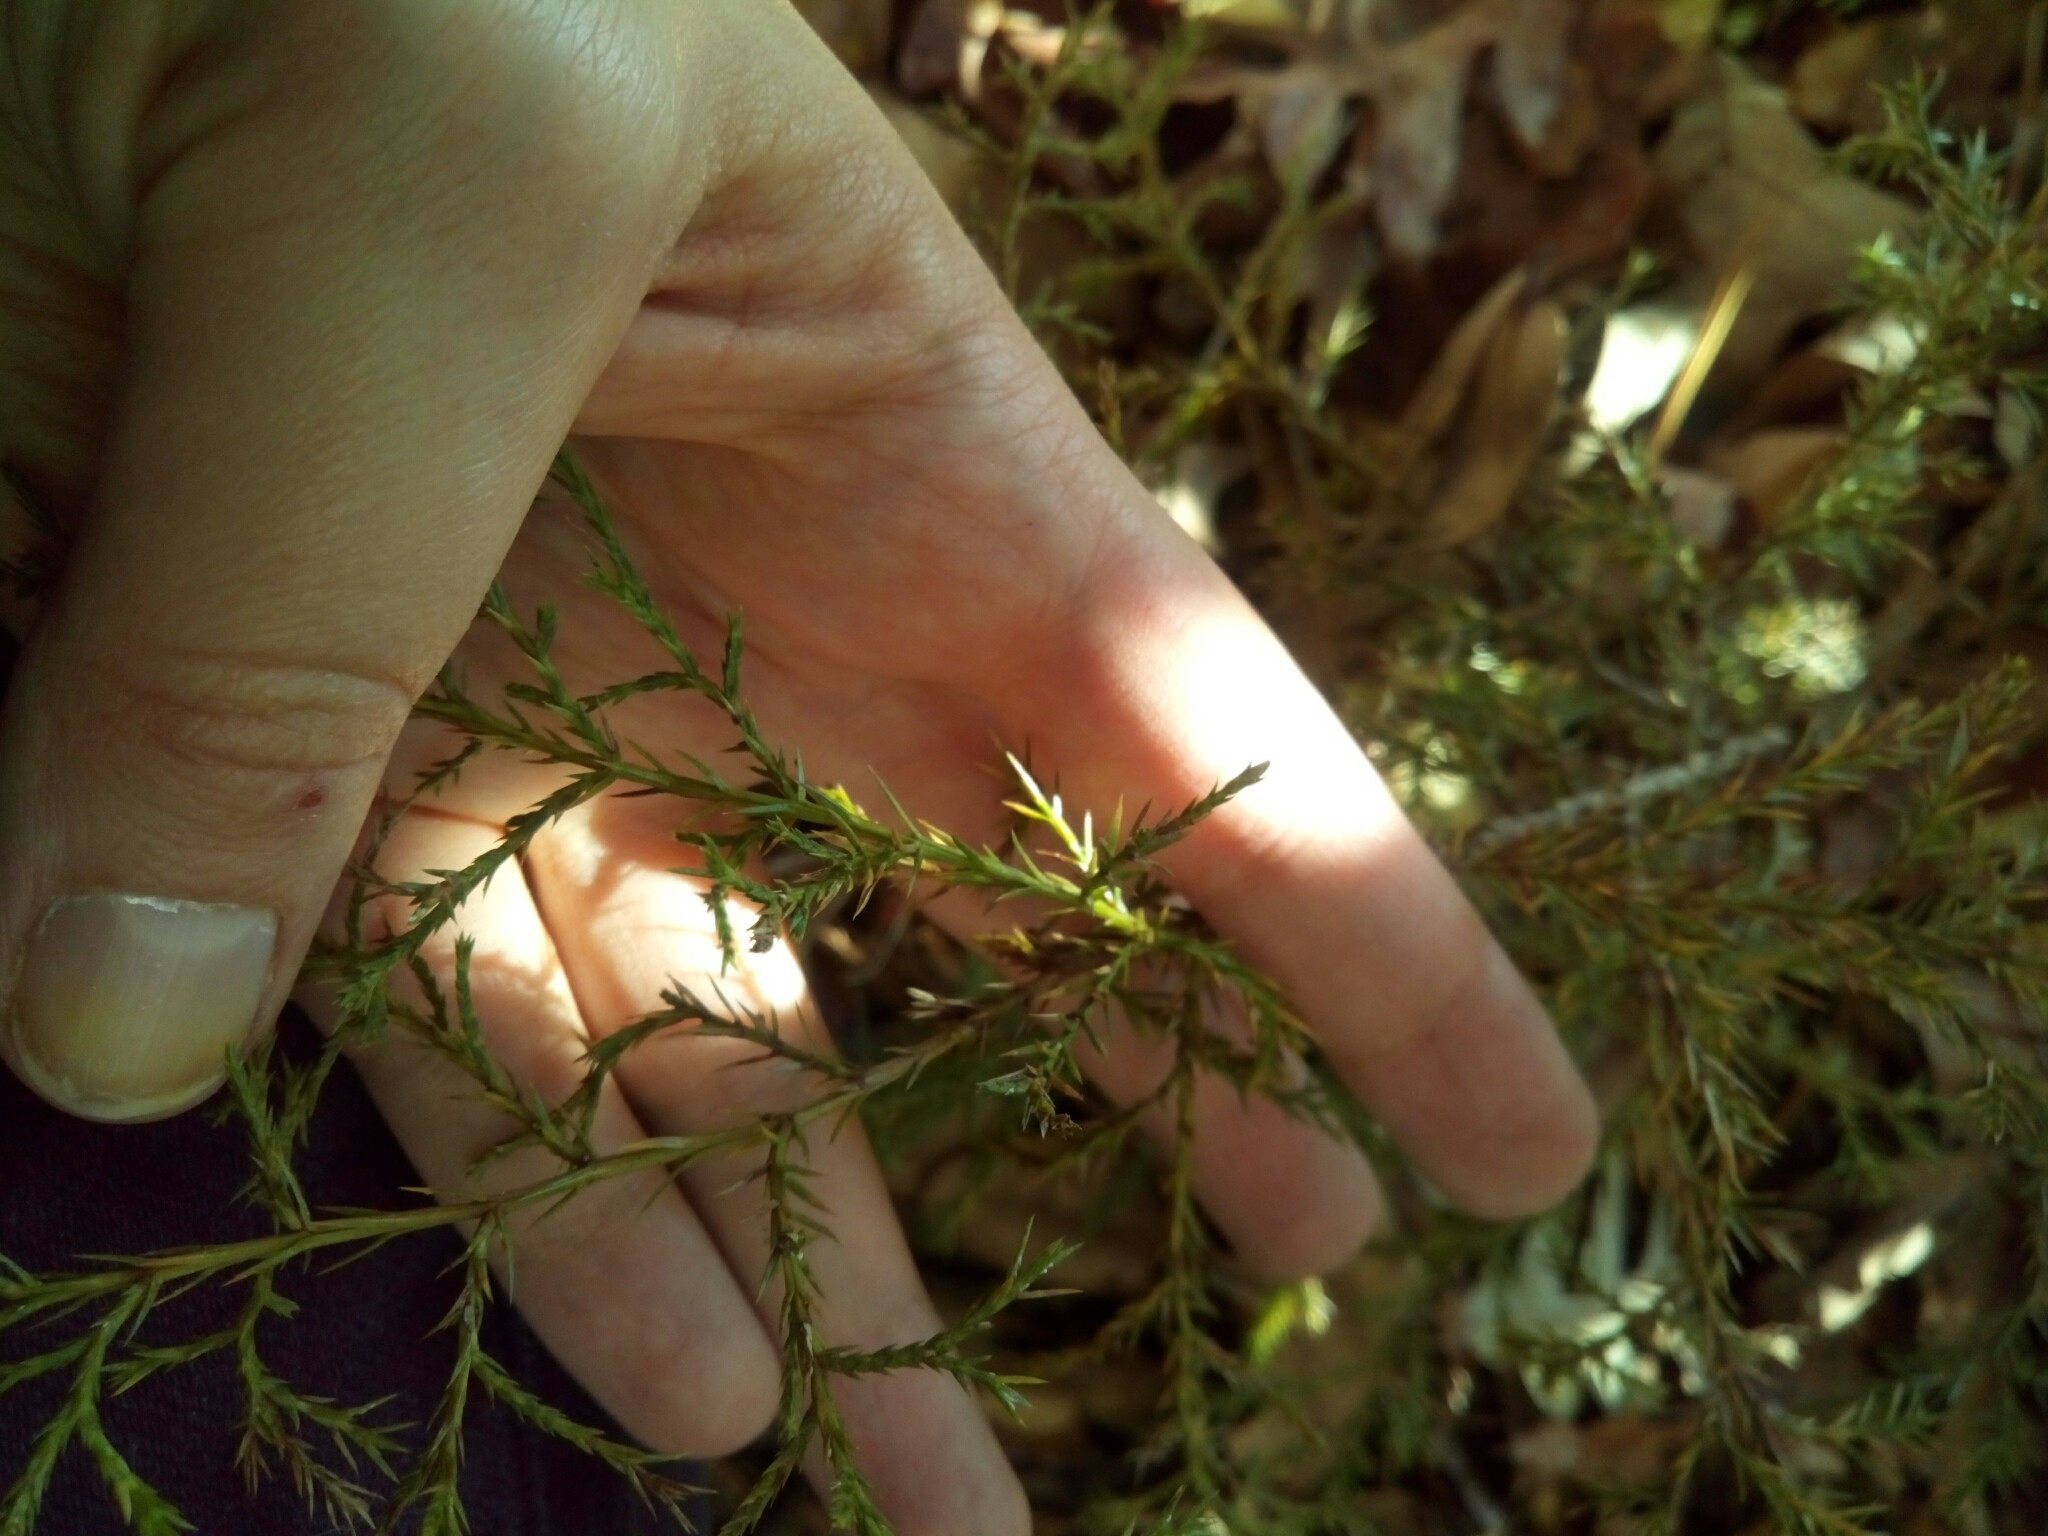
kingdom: Plantae
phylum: Tracheophyta
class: Pinopsida
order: Pinales
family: Cupressaceae
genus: Juniperus
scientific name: Juniperus virginiana
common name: Red juniper
